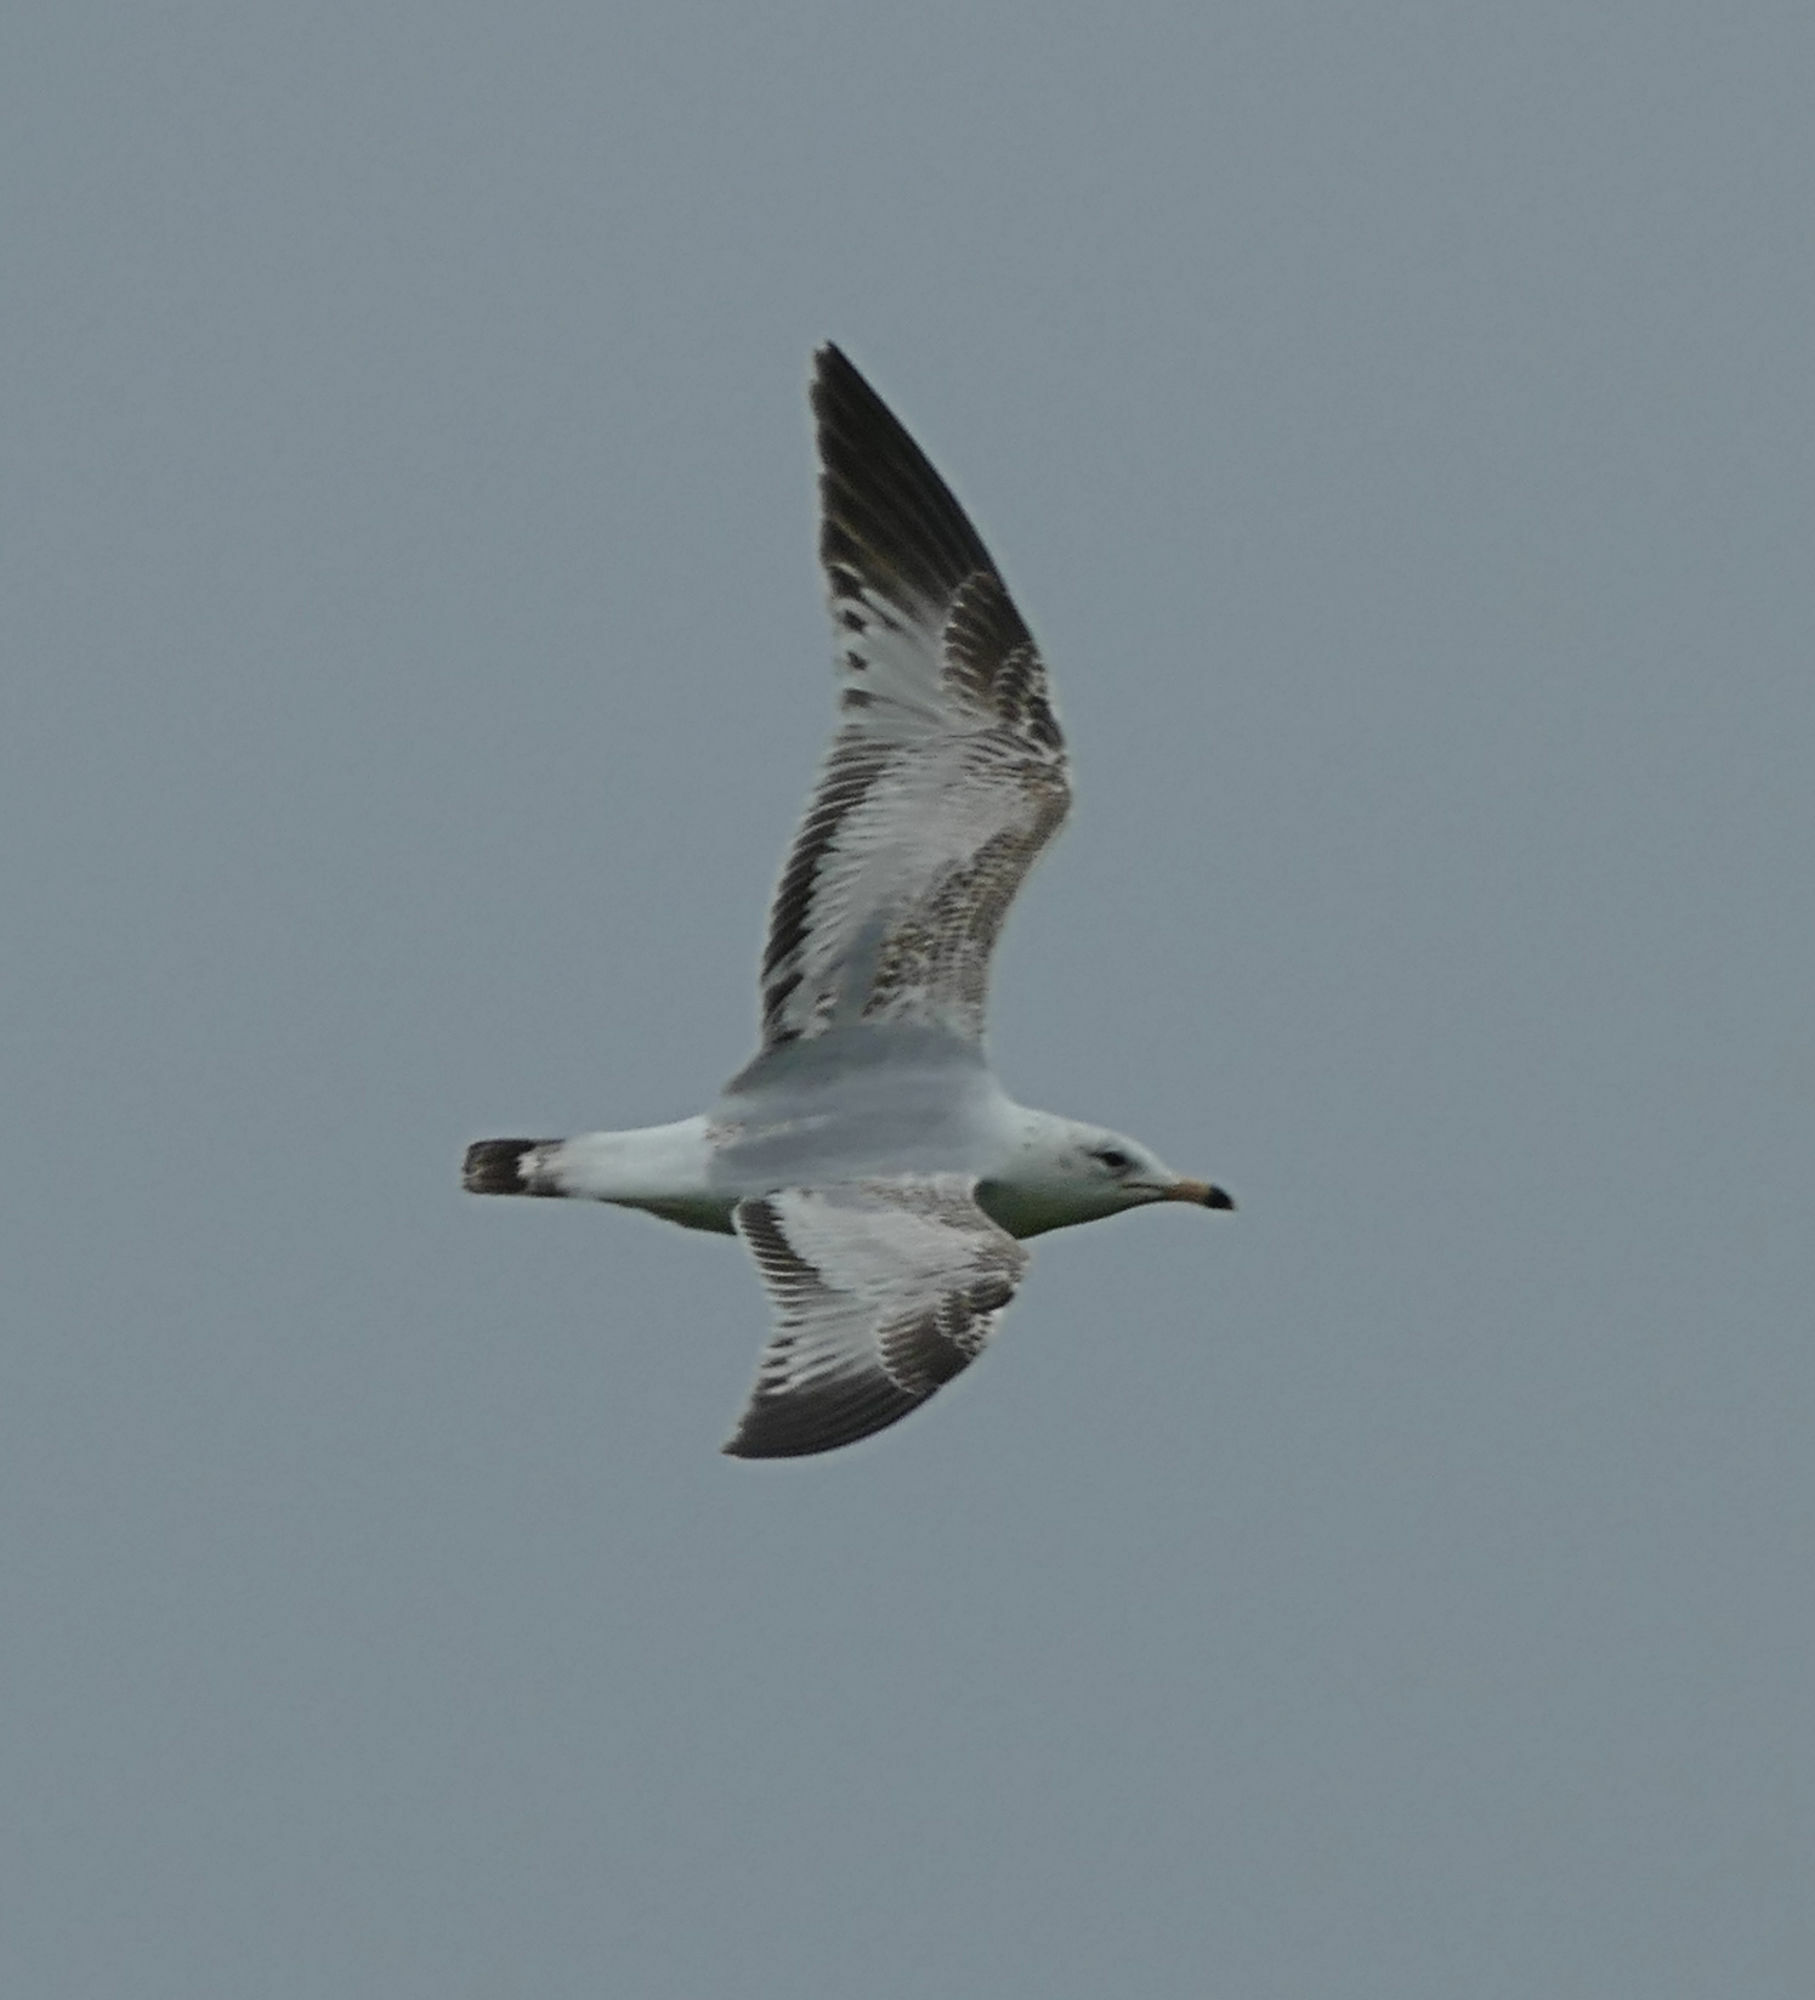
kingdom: Animalia
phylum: Chordata
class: Aves
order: Charadriiformes
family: Laridae
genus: Larus
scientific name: Larus delawarensis
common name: Ring-billed gull
